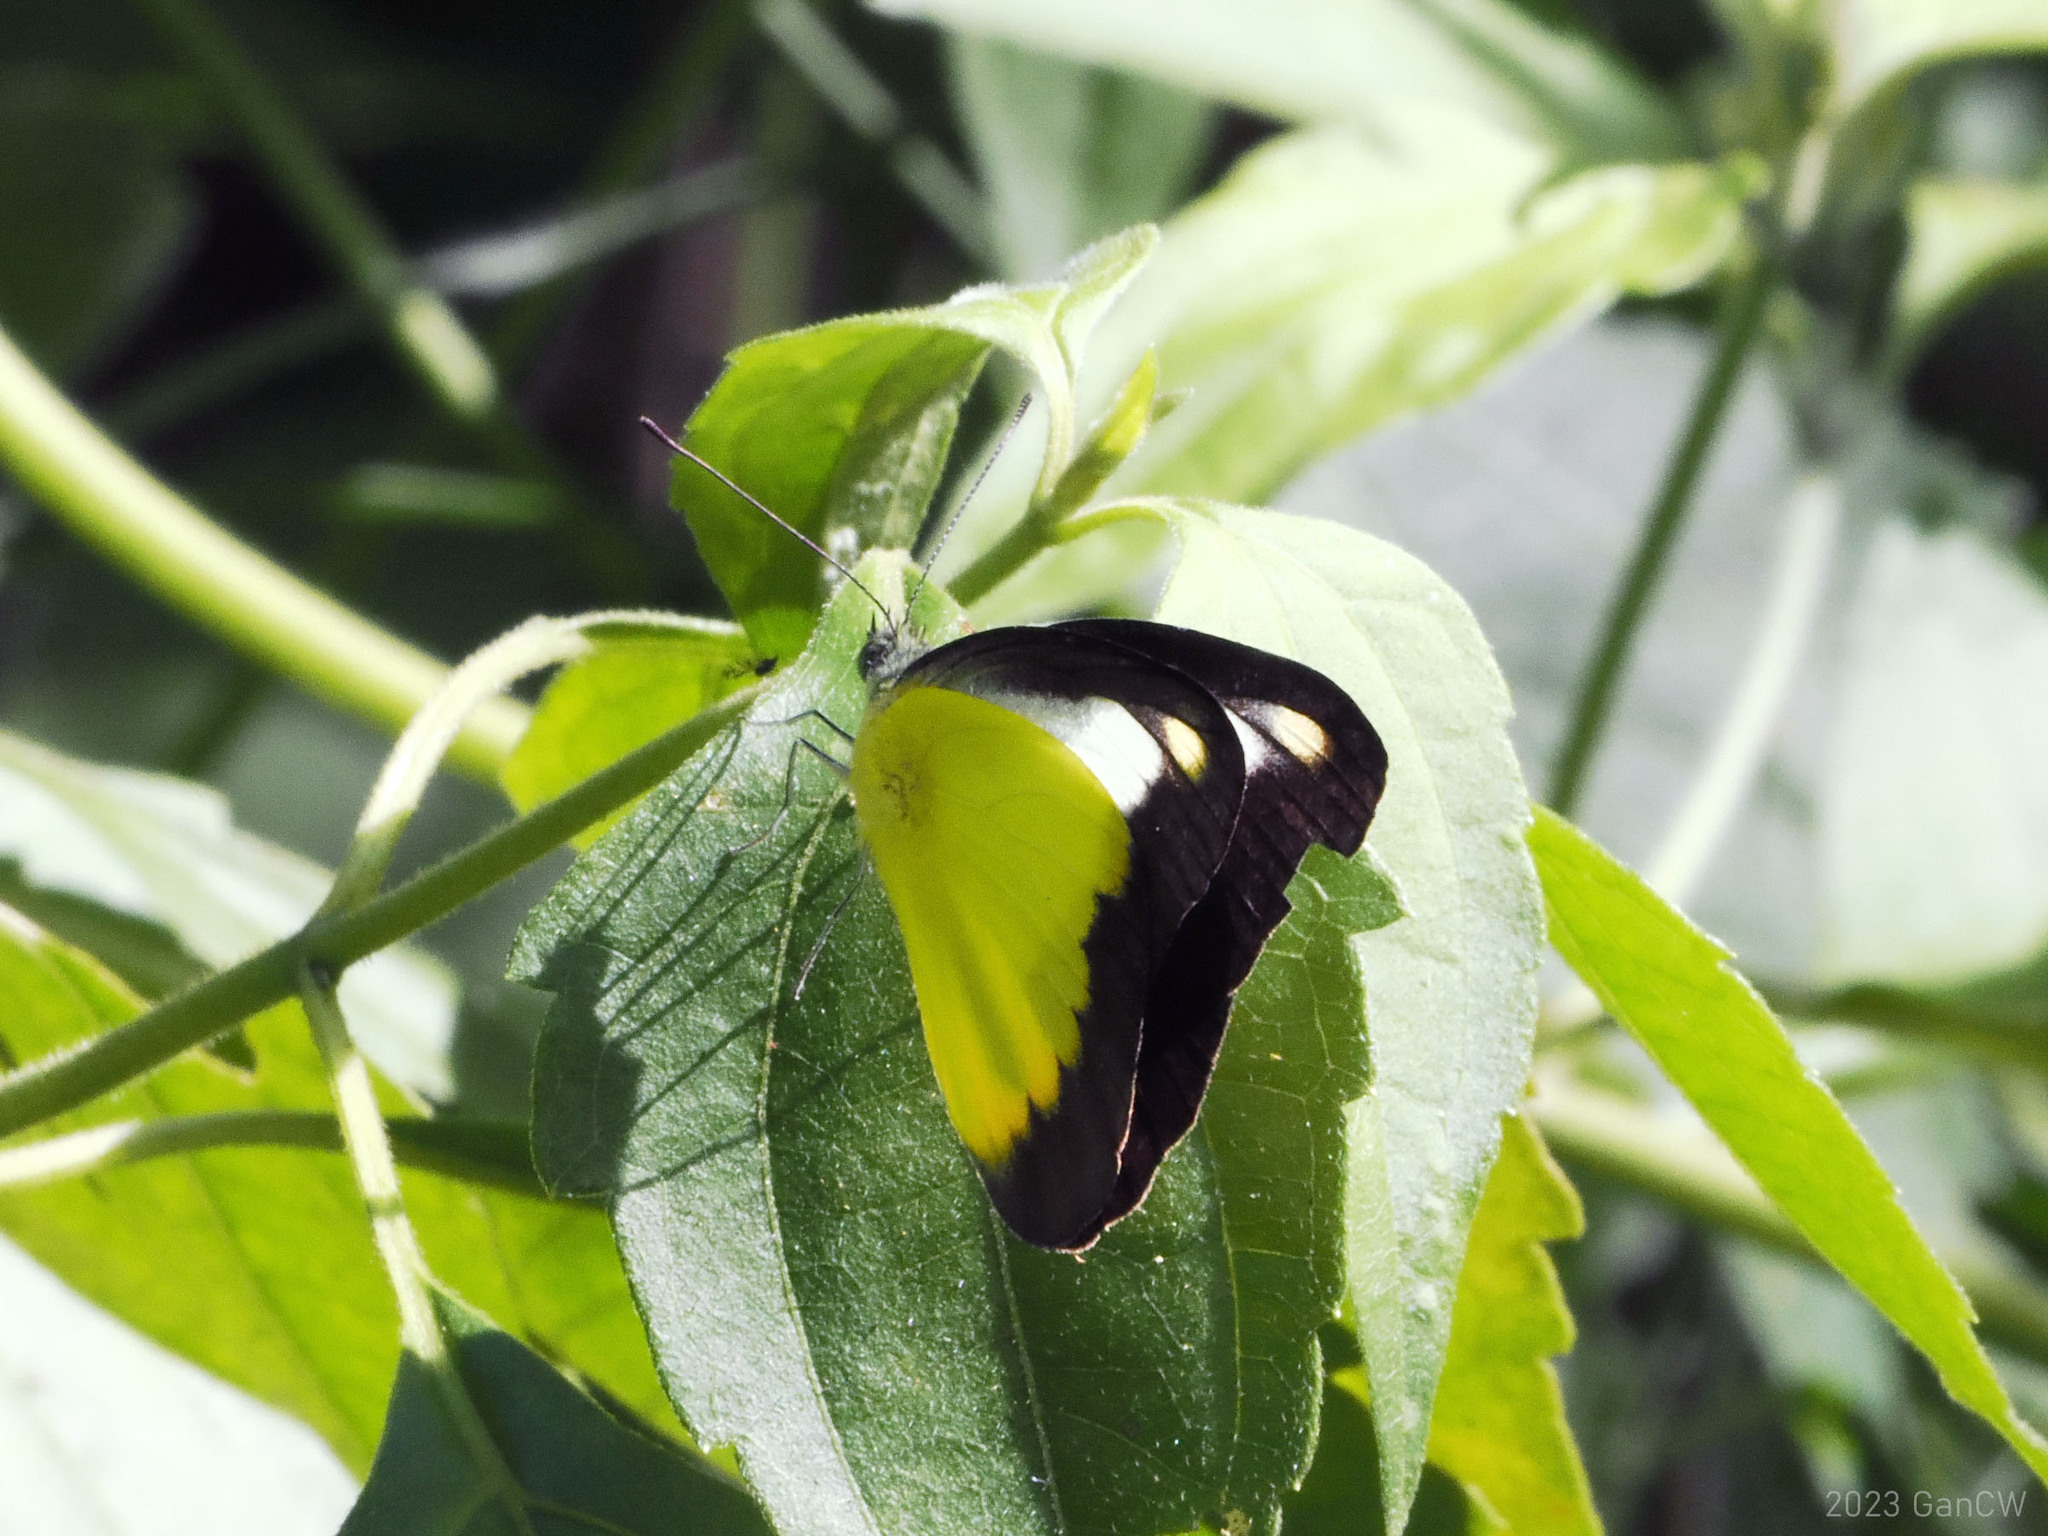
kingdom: Animalia
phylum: Arthropoda
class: Insecta
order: Lepidoptera
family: Pieridae
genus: Appias
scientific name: Appias nephele
